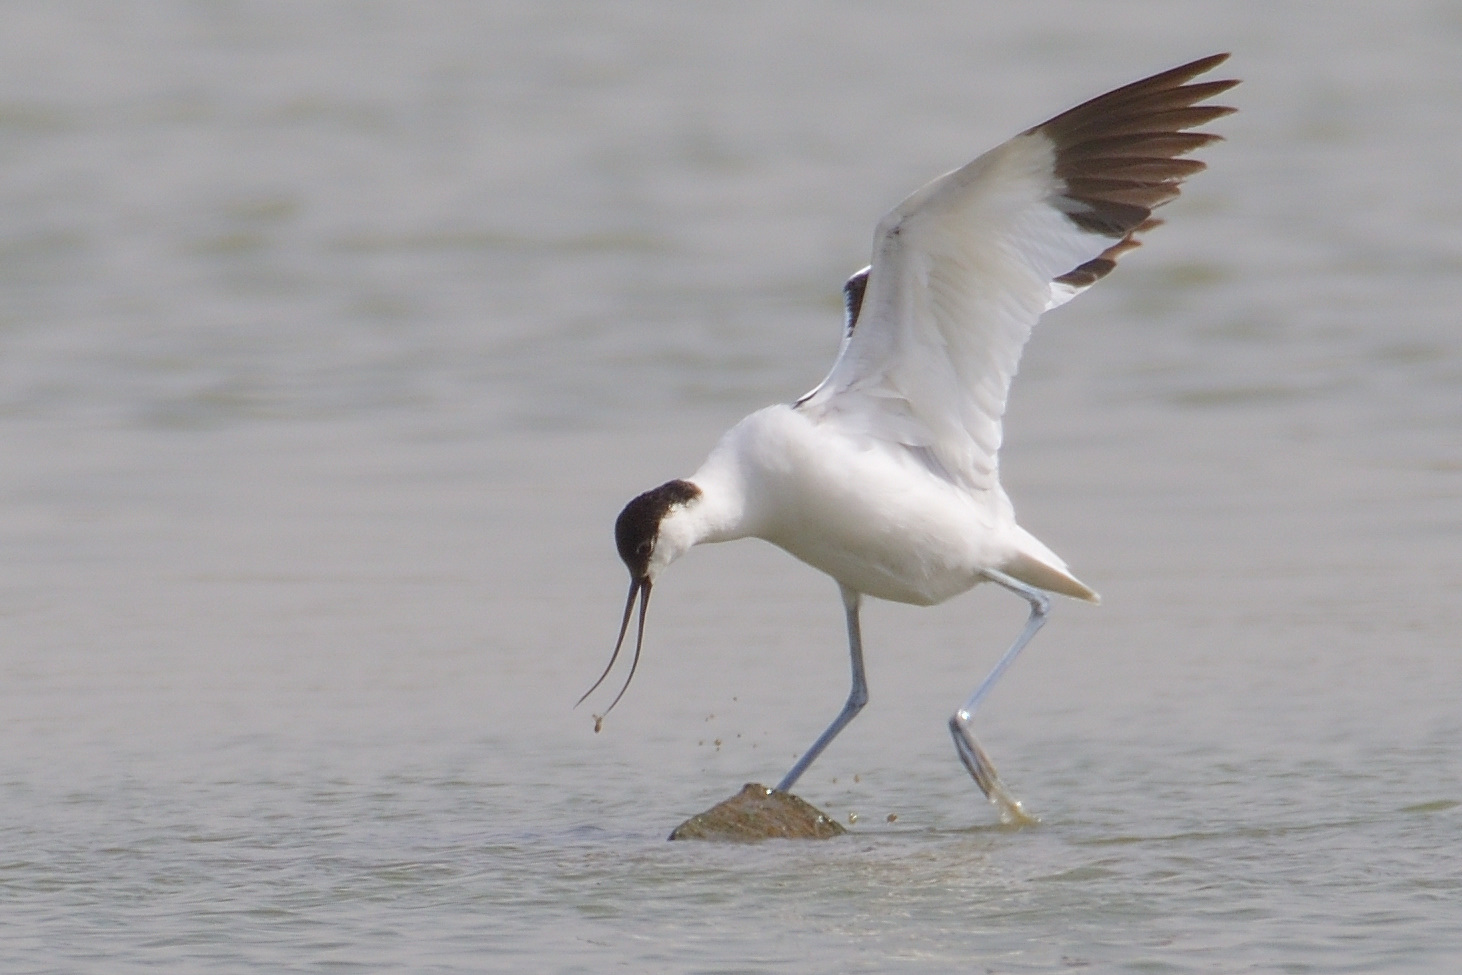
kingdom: Animalia
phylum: Chordata
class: Aves
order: Charadriiformes
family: Recurvirostridae
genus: Recurvirostra
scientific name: Recurvirostra avosetta
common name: Pied avocet
